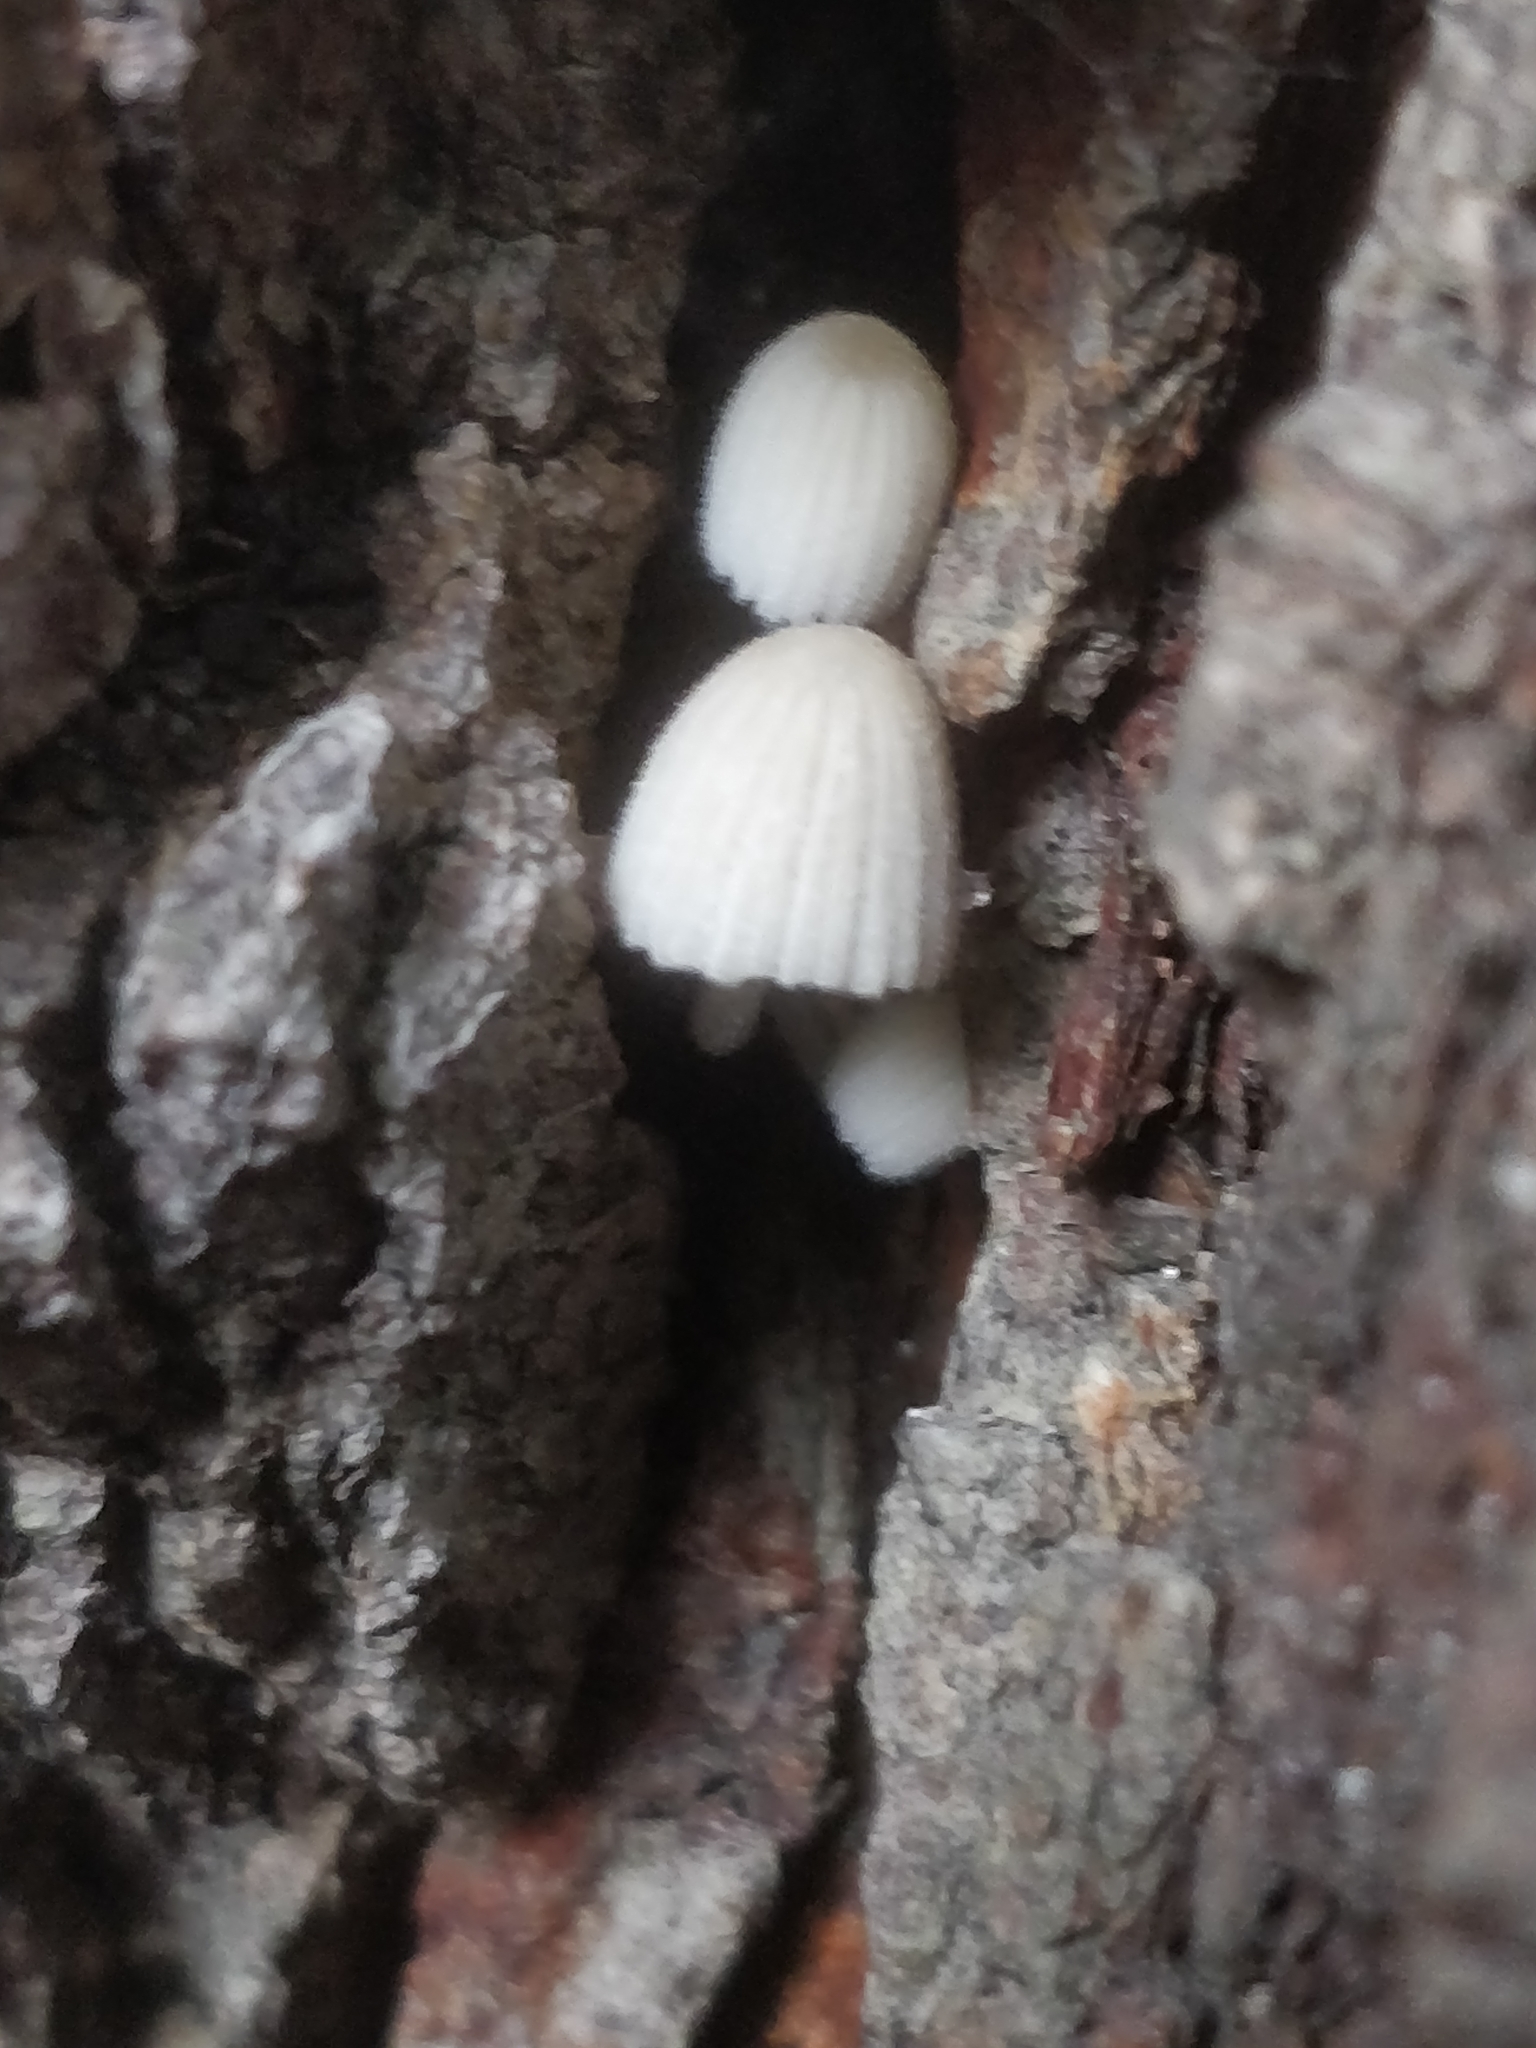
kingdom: Fungi
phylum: Basidiomycota
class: Agaricomycetes
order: Agaricales
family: Psathyrellaceae
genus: Coprinellus
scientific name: Coprinellus disseminatus
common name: Fairies' bonnets
